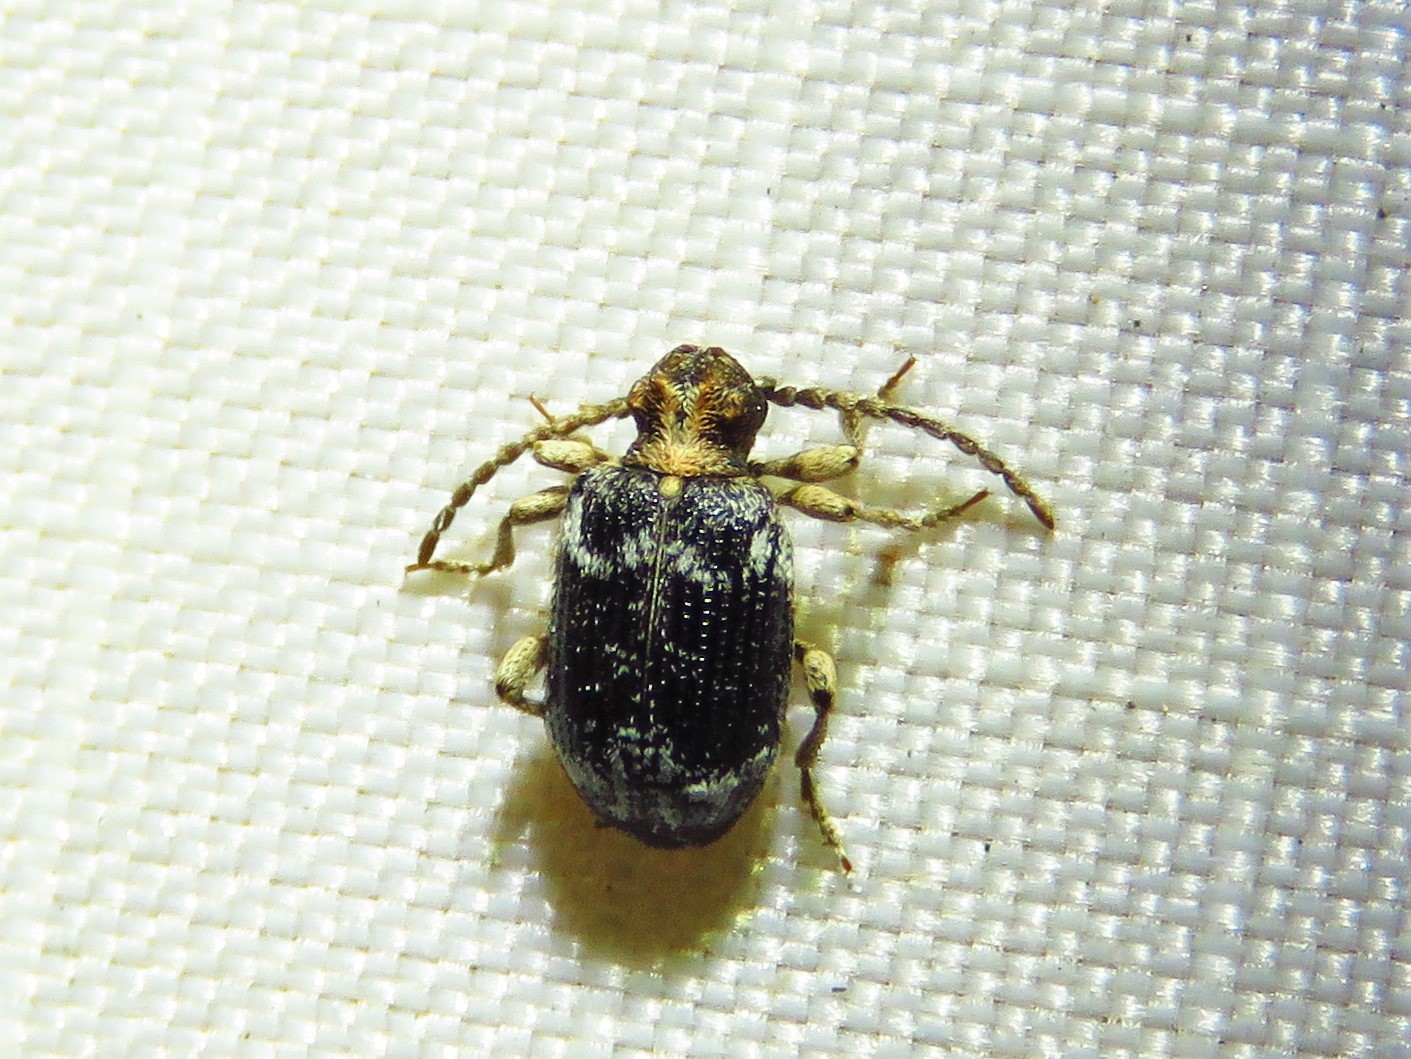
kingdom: Animalia
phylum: Arthropoda
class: Insecta
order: Coleoptera
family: Ptinidae
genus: Ptinus
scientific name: Ptinus variegatus
